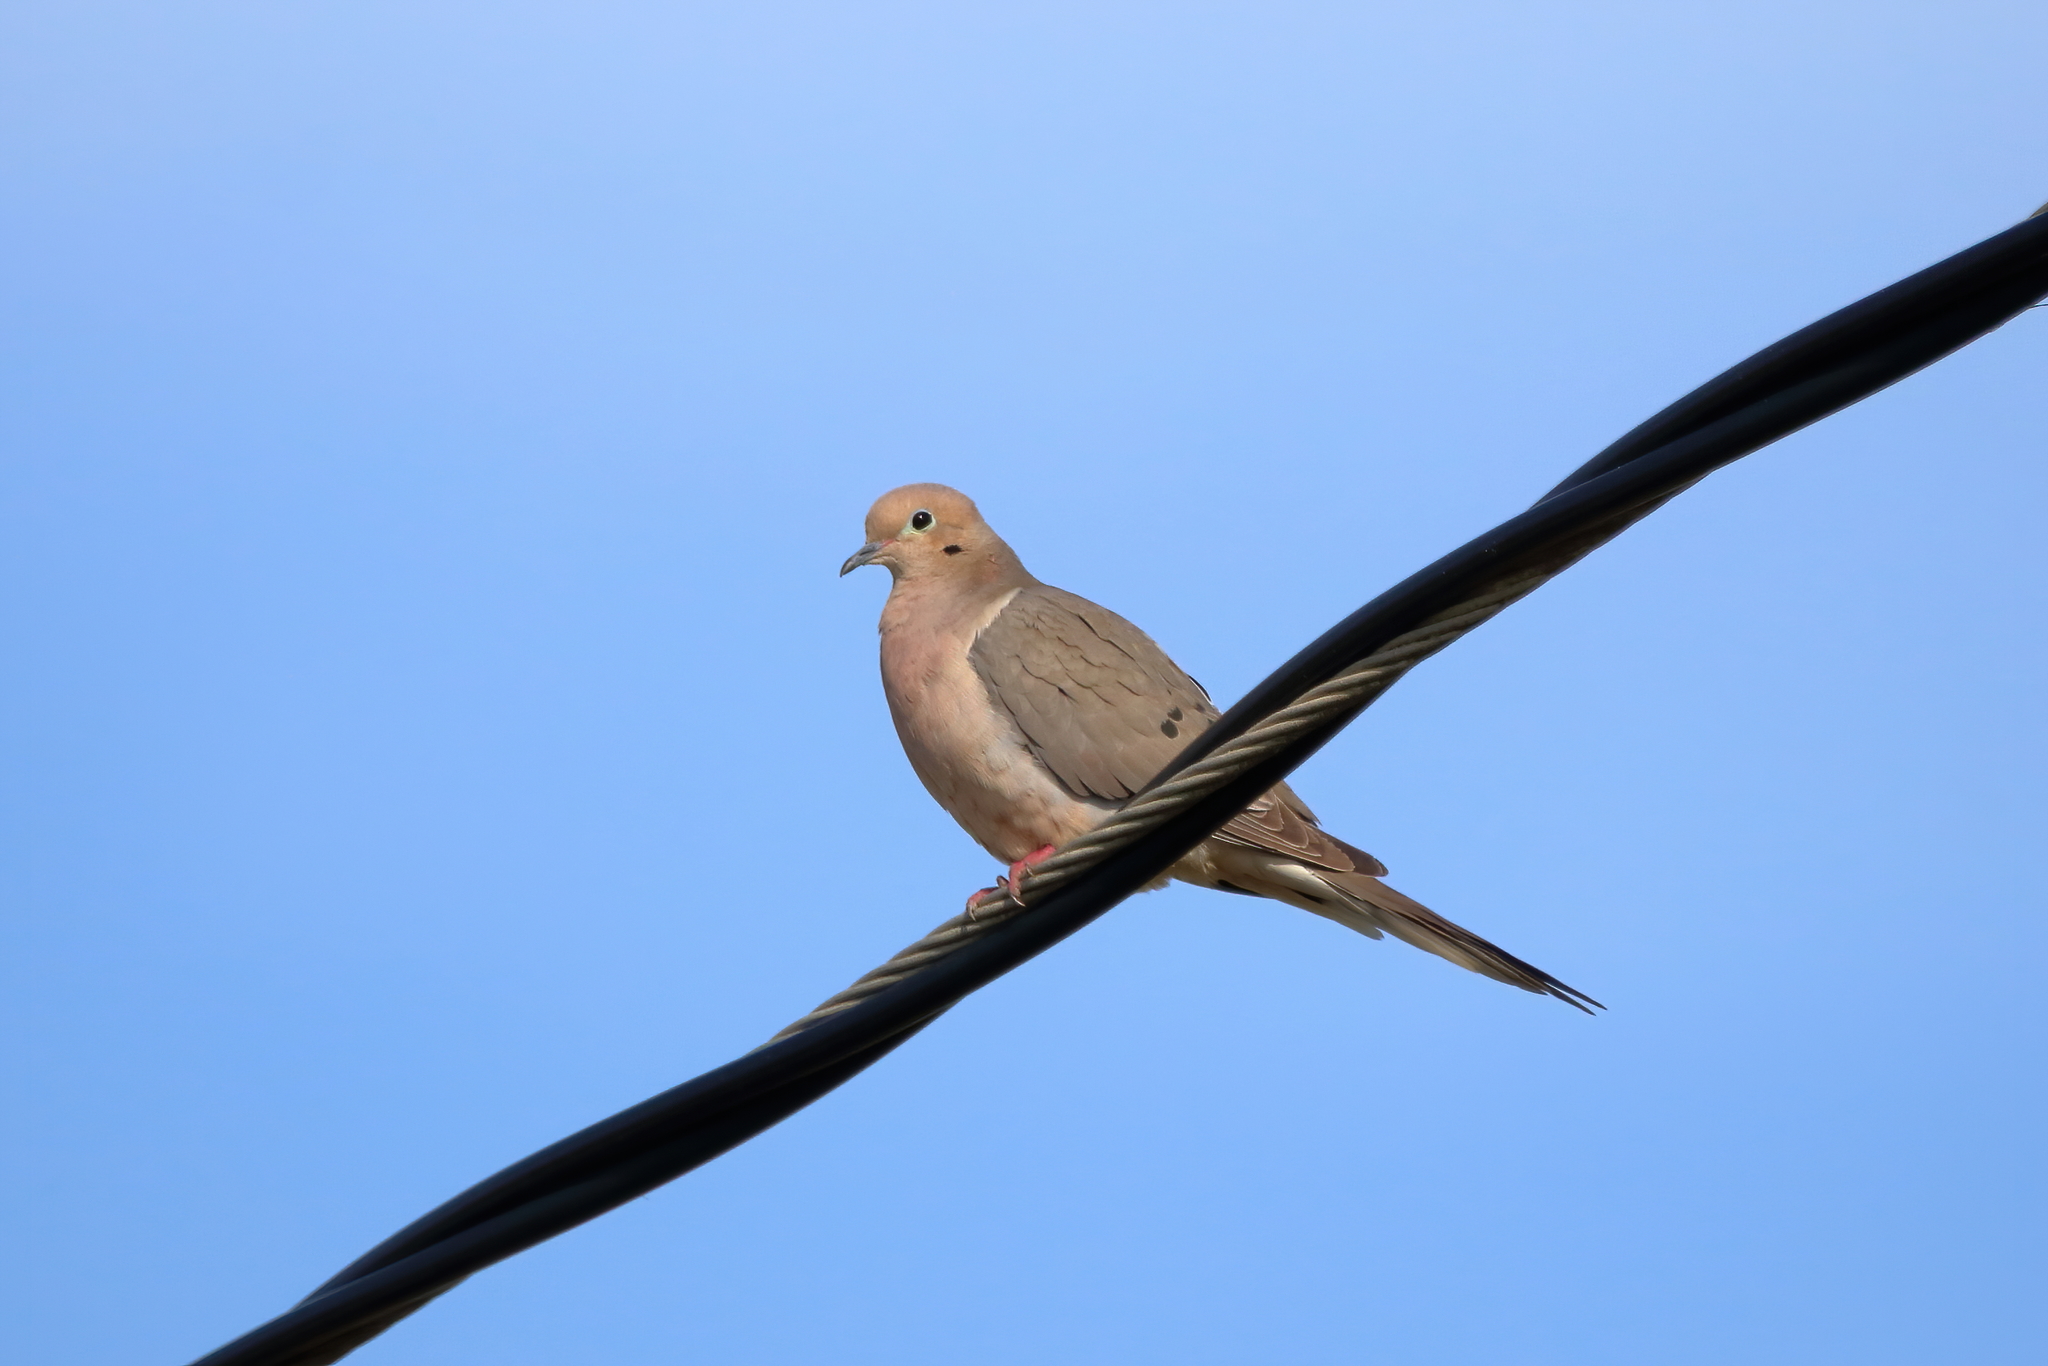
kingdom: Animalia
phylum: Chordata
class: Aves
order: Columbiformes
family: Columbidae
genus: Zenaida
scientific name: Zenaida macroura
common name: Mourning dove
